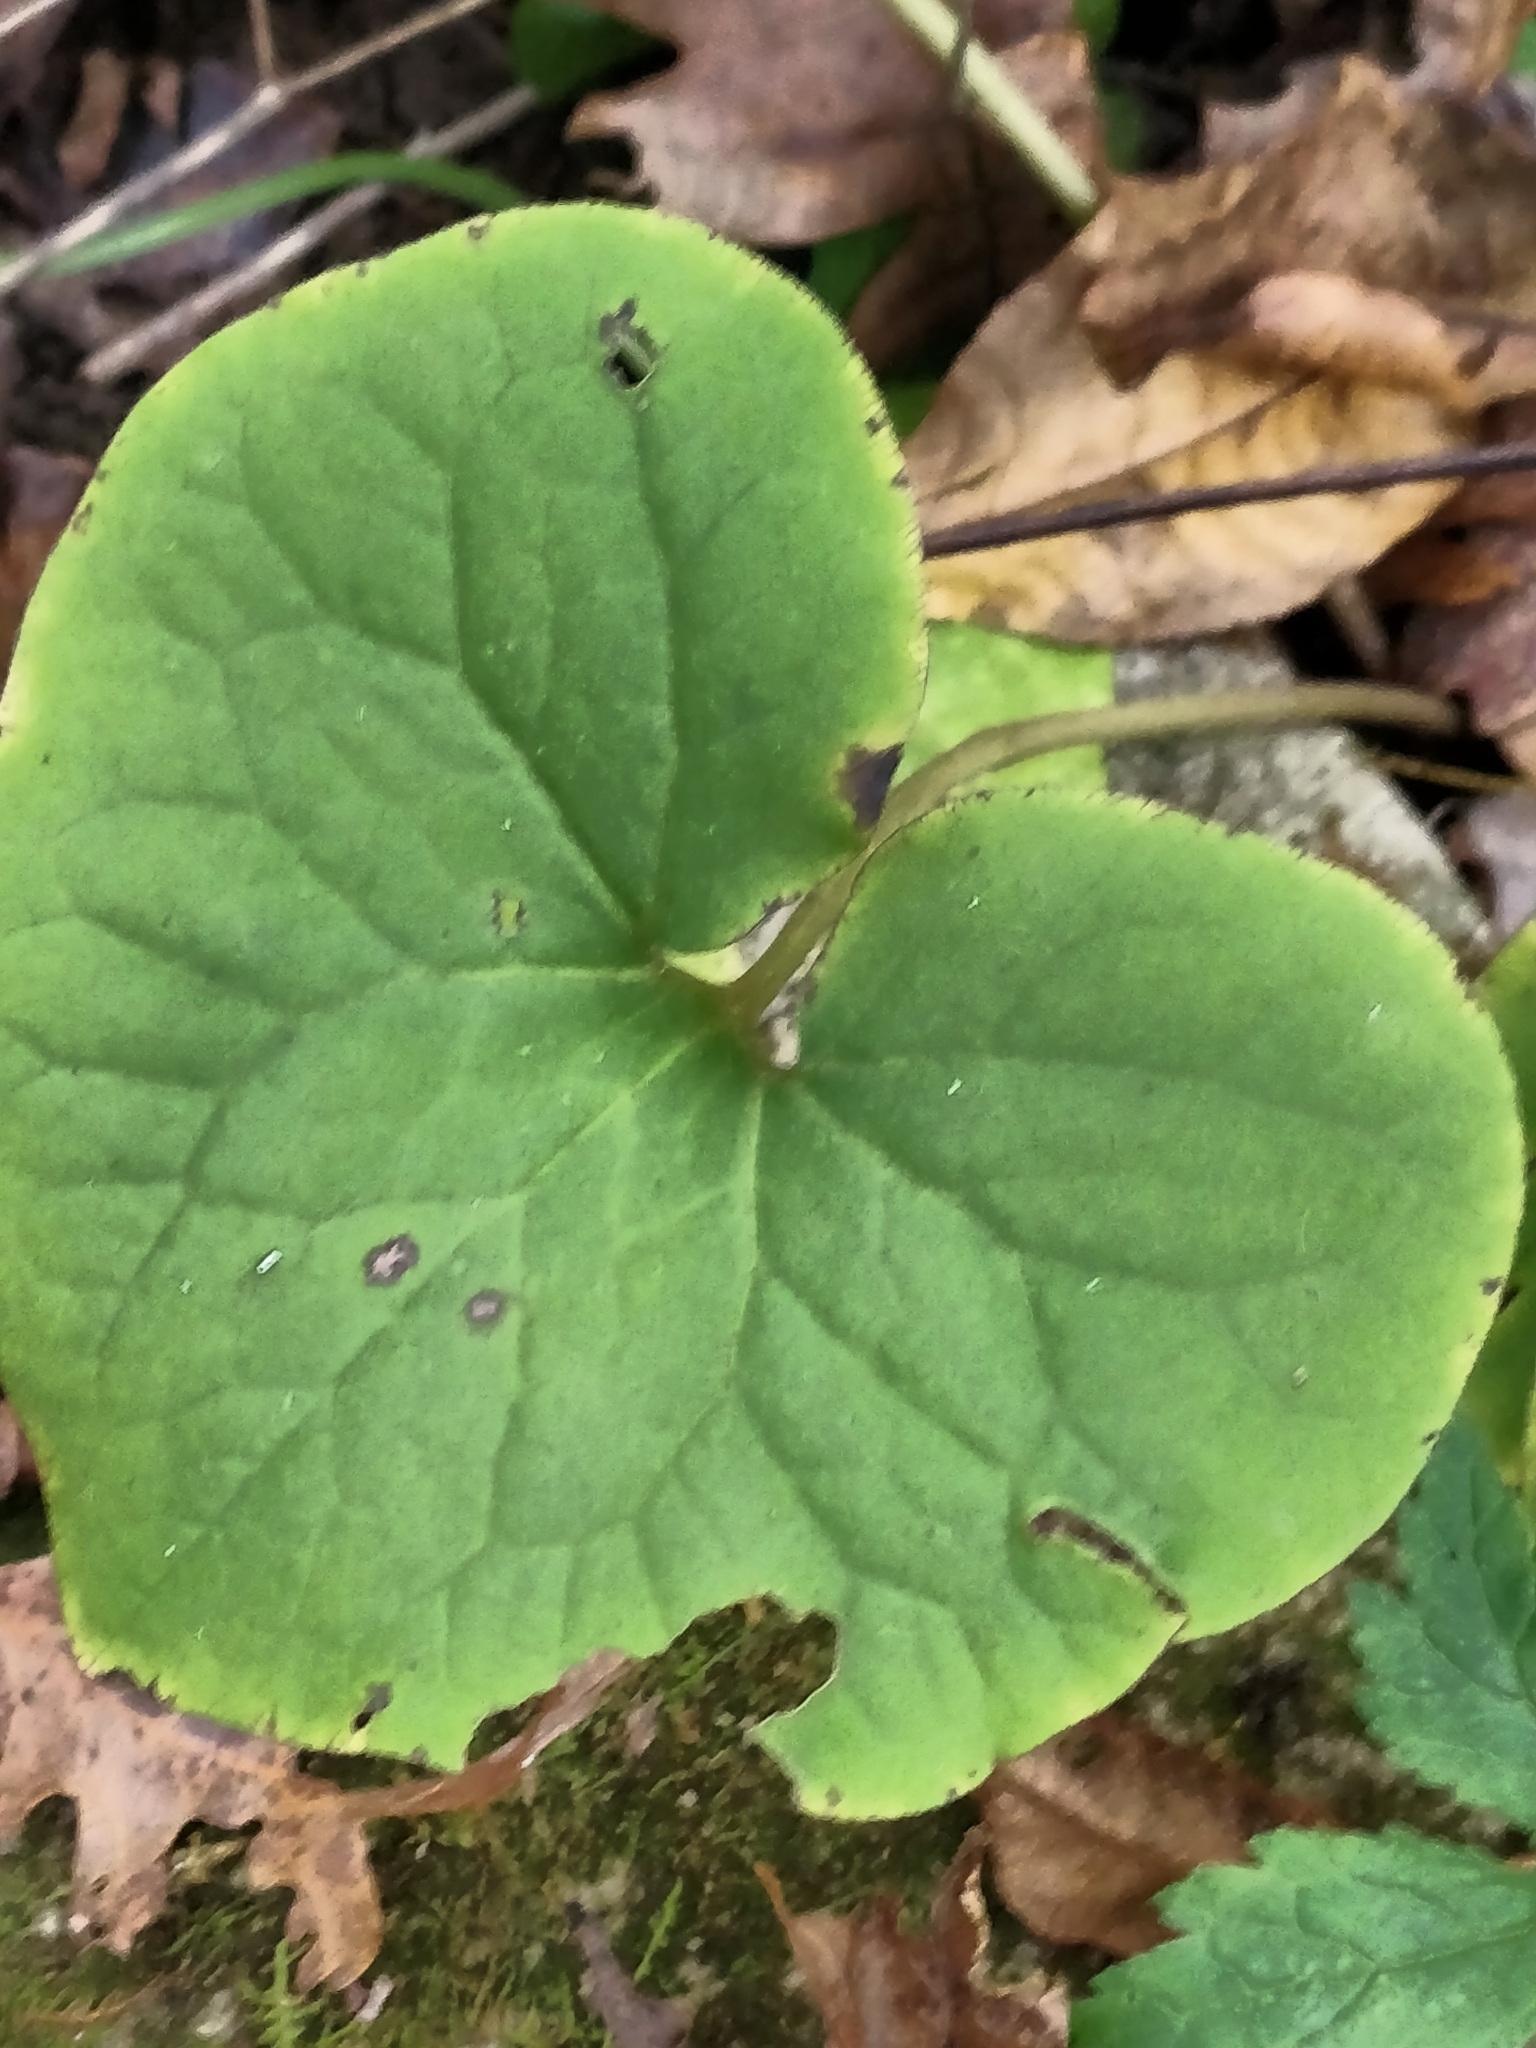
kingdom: Plantae
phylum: Tracheophyta
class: Magnoliopsida
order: Piperales
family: Aristolochiaceae
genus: Asarum
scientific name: Asarum canadense
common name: Wild ginger
